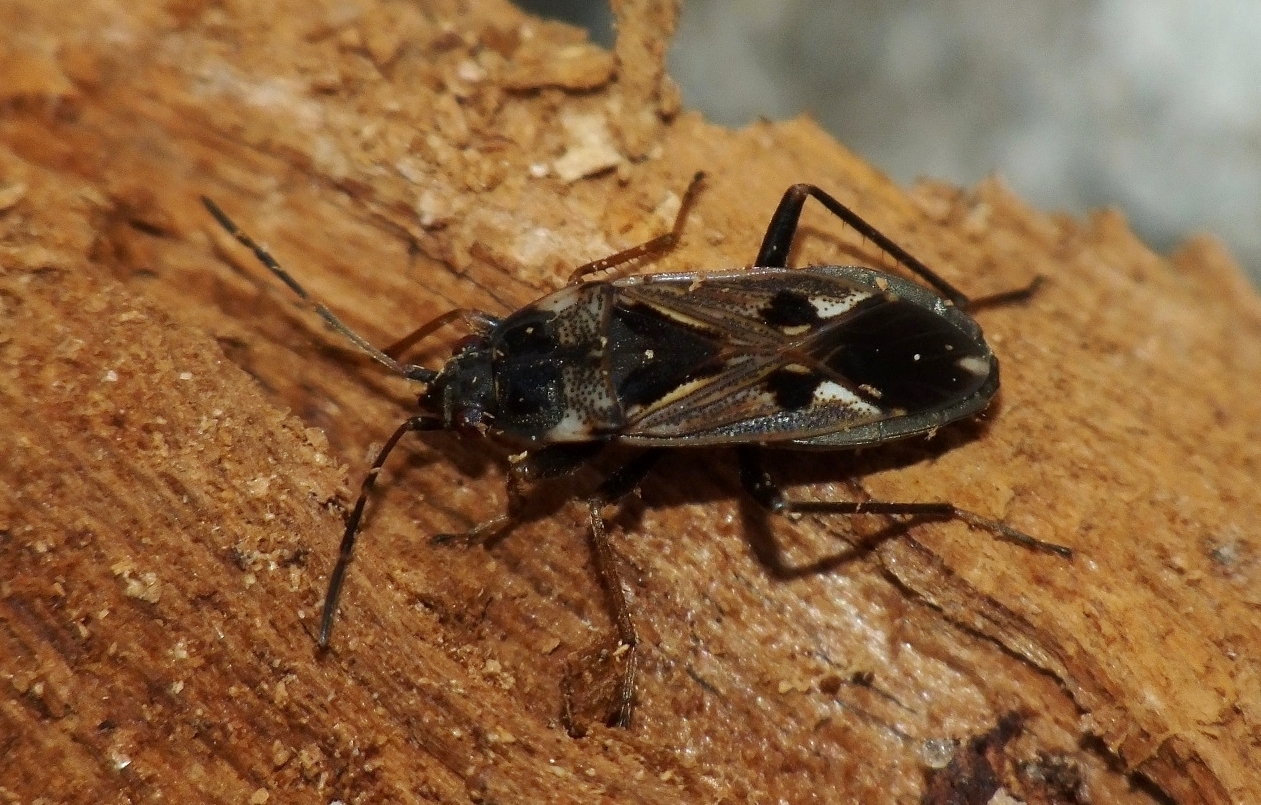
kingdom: Animalia
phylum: Arthropoda
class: Insecta
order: Hemiptera
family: Rhyparochromidae
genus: Rhyparochromus
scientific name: Rhyparochromus vulgaris
